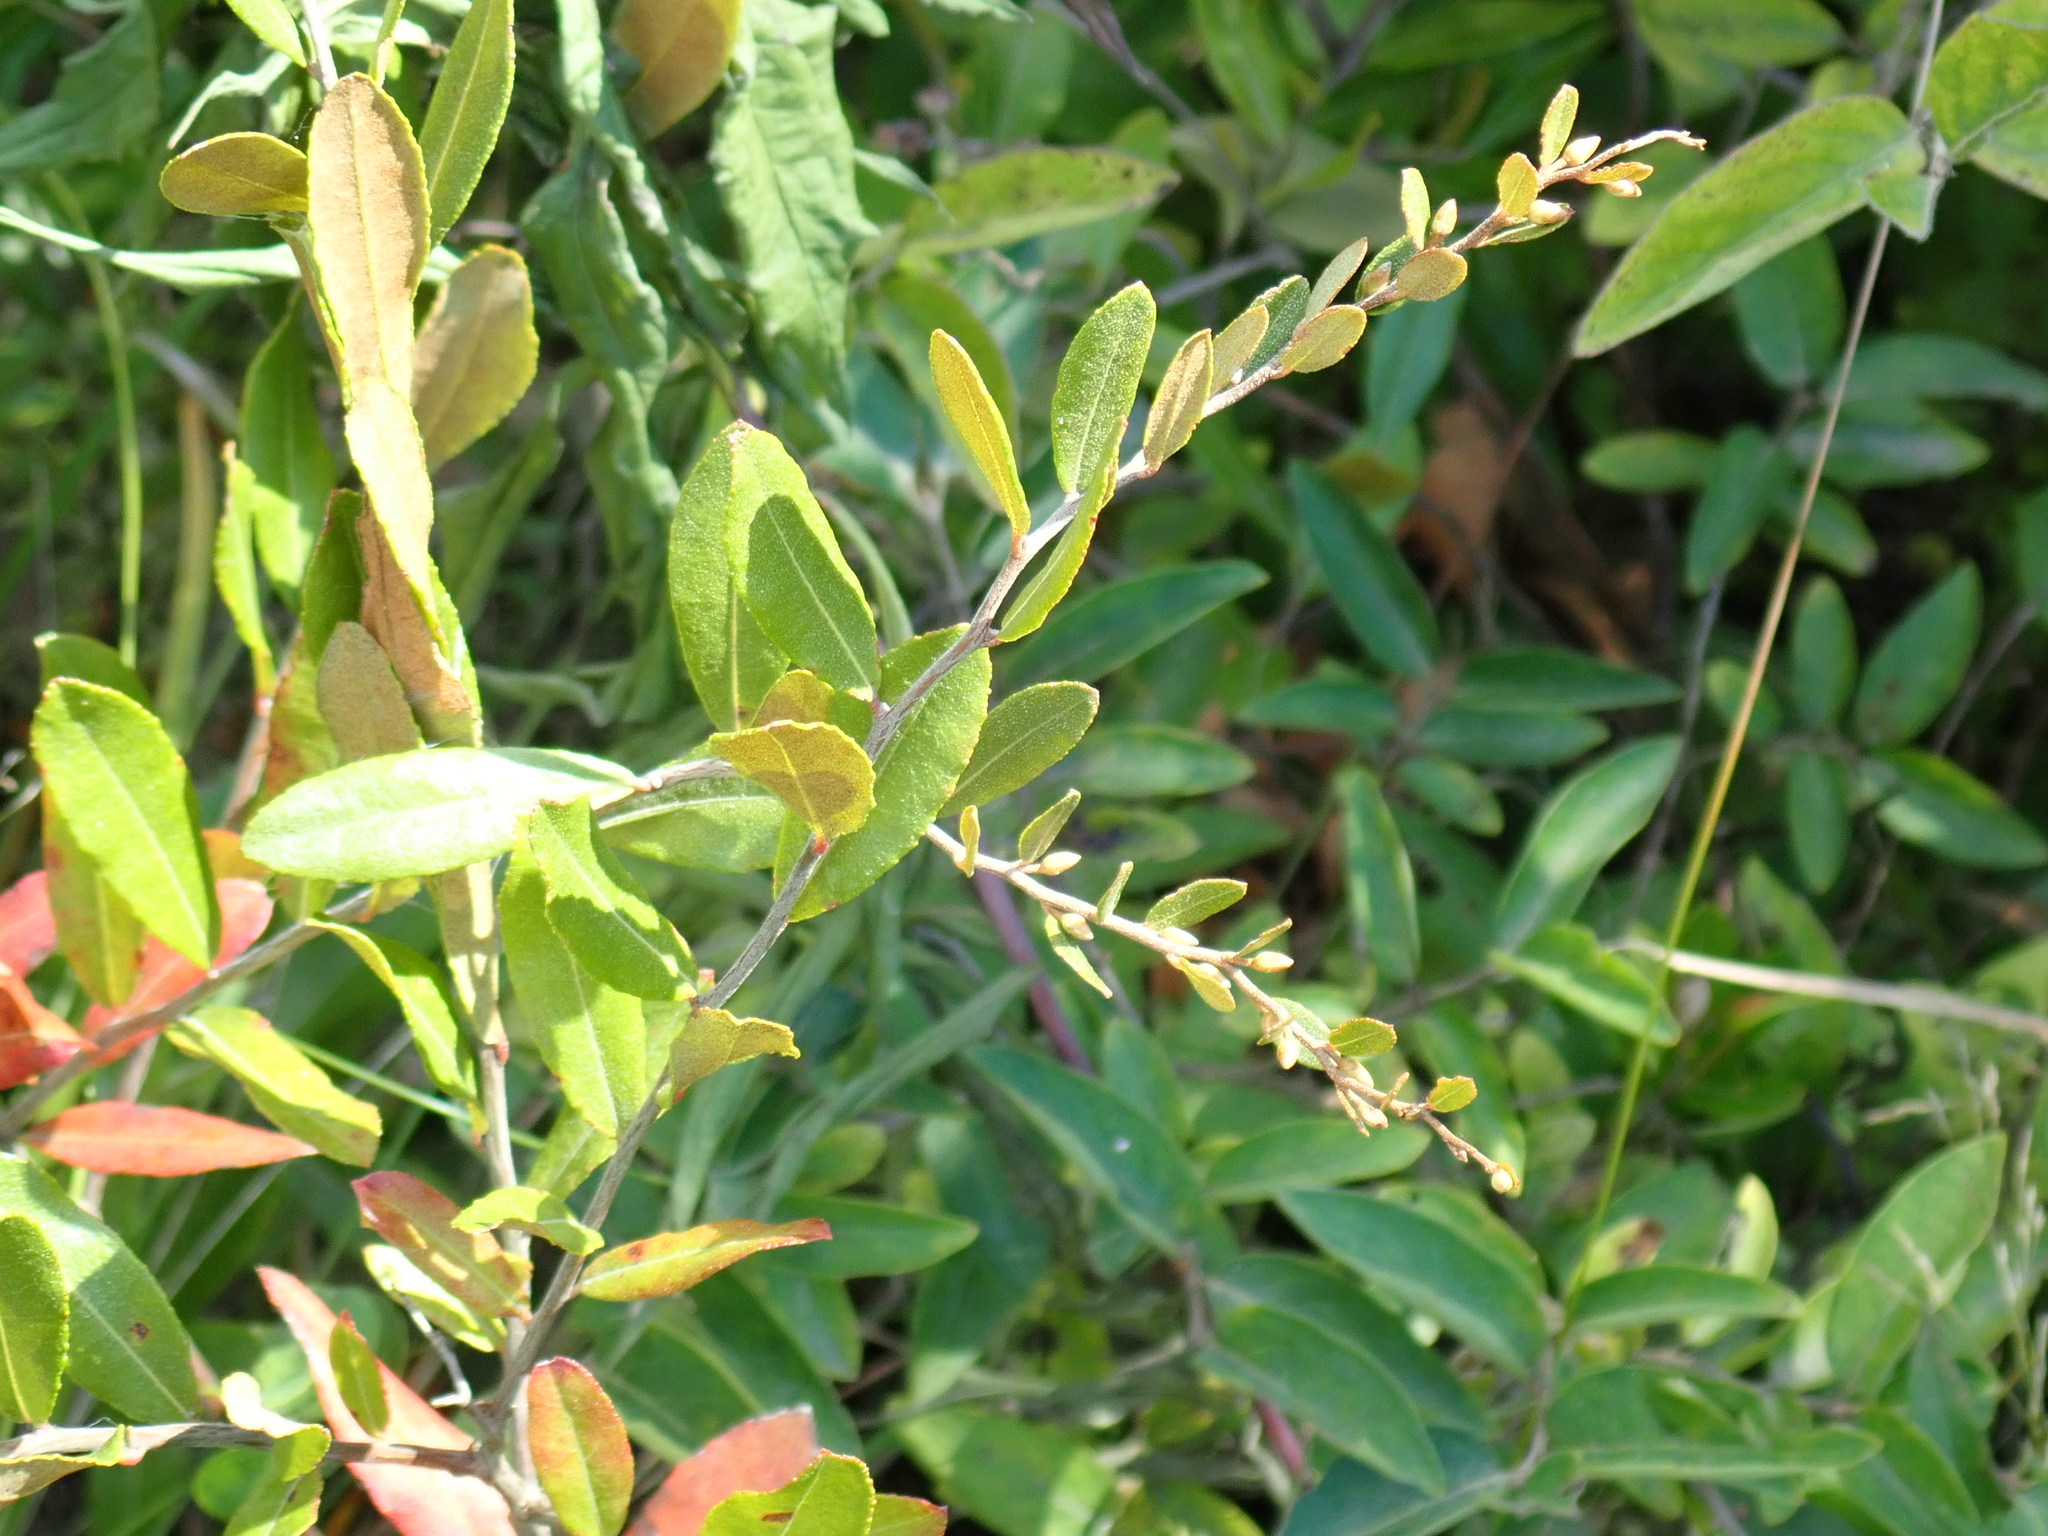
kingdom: Plantae
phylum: Tracheophyta
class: Magnoliopsida
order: Ericales
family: Ericaceae
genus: Chamaedaphne
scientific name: Chamaedaphne calyculata
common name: Leatherleaf
